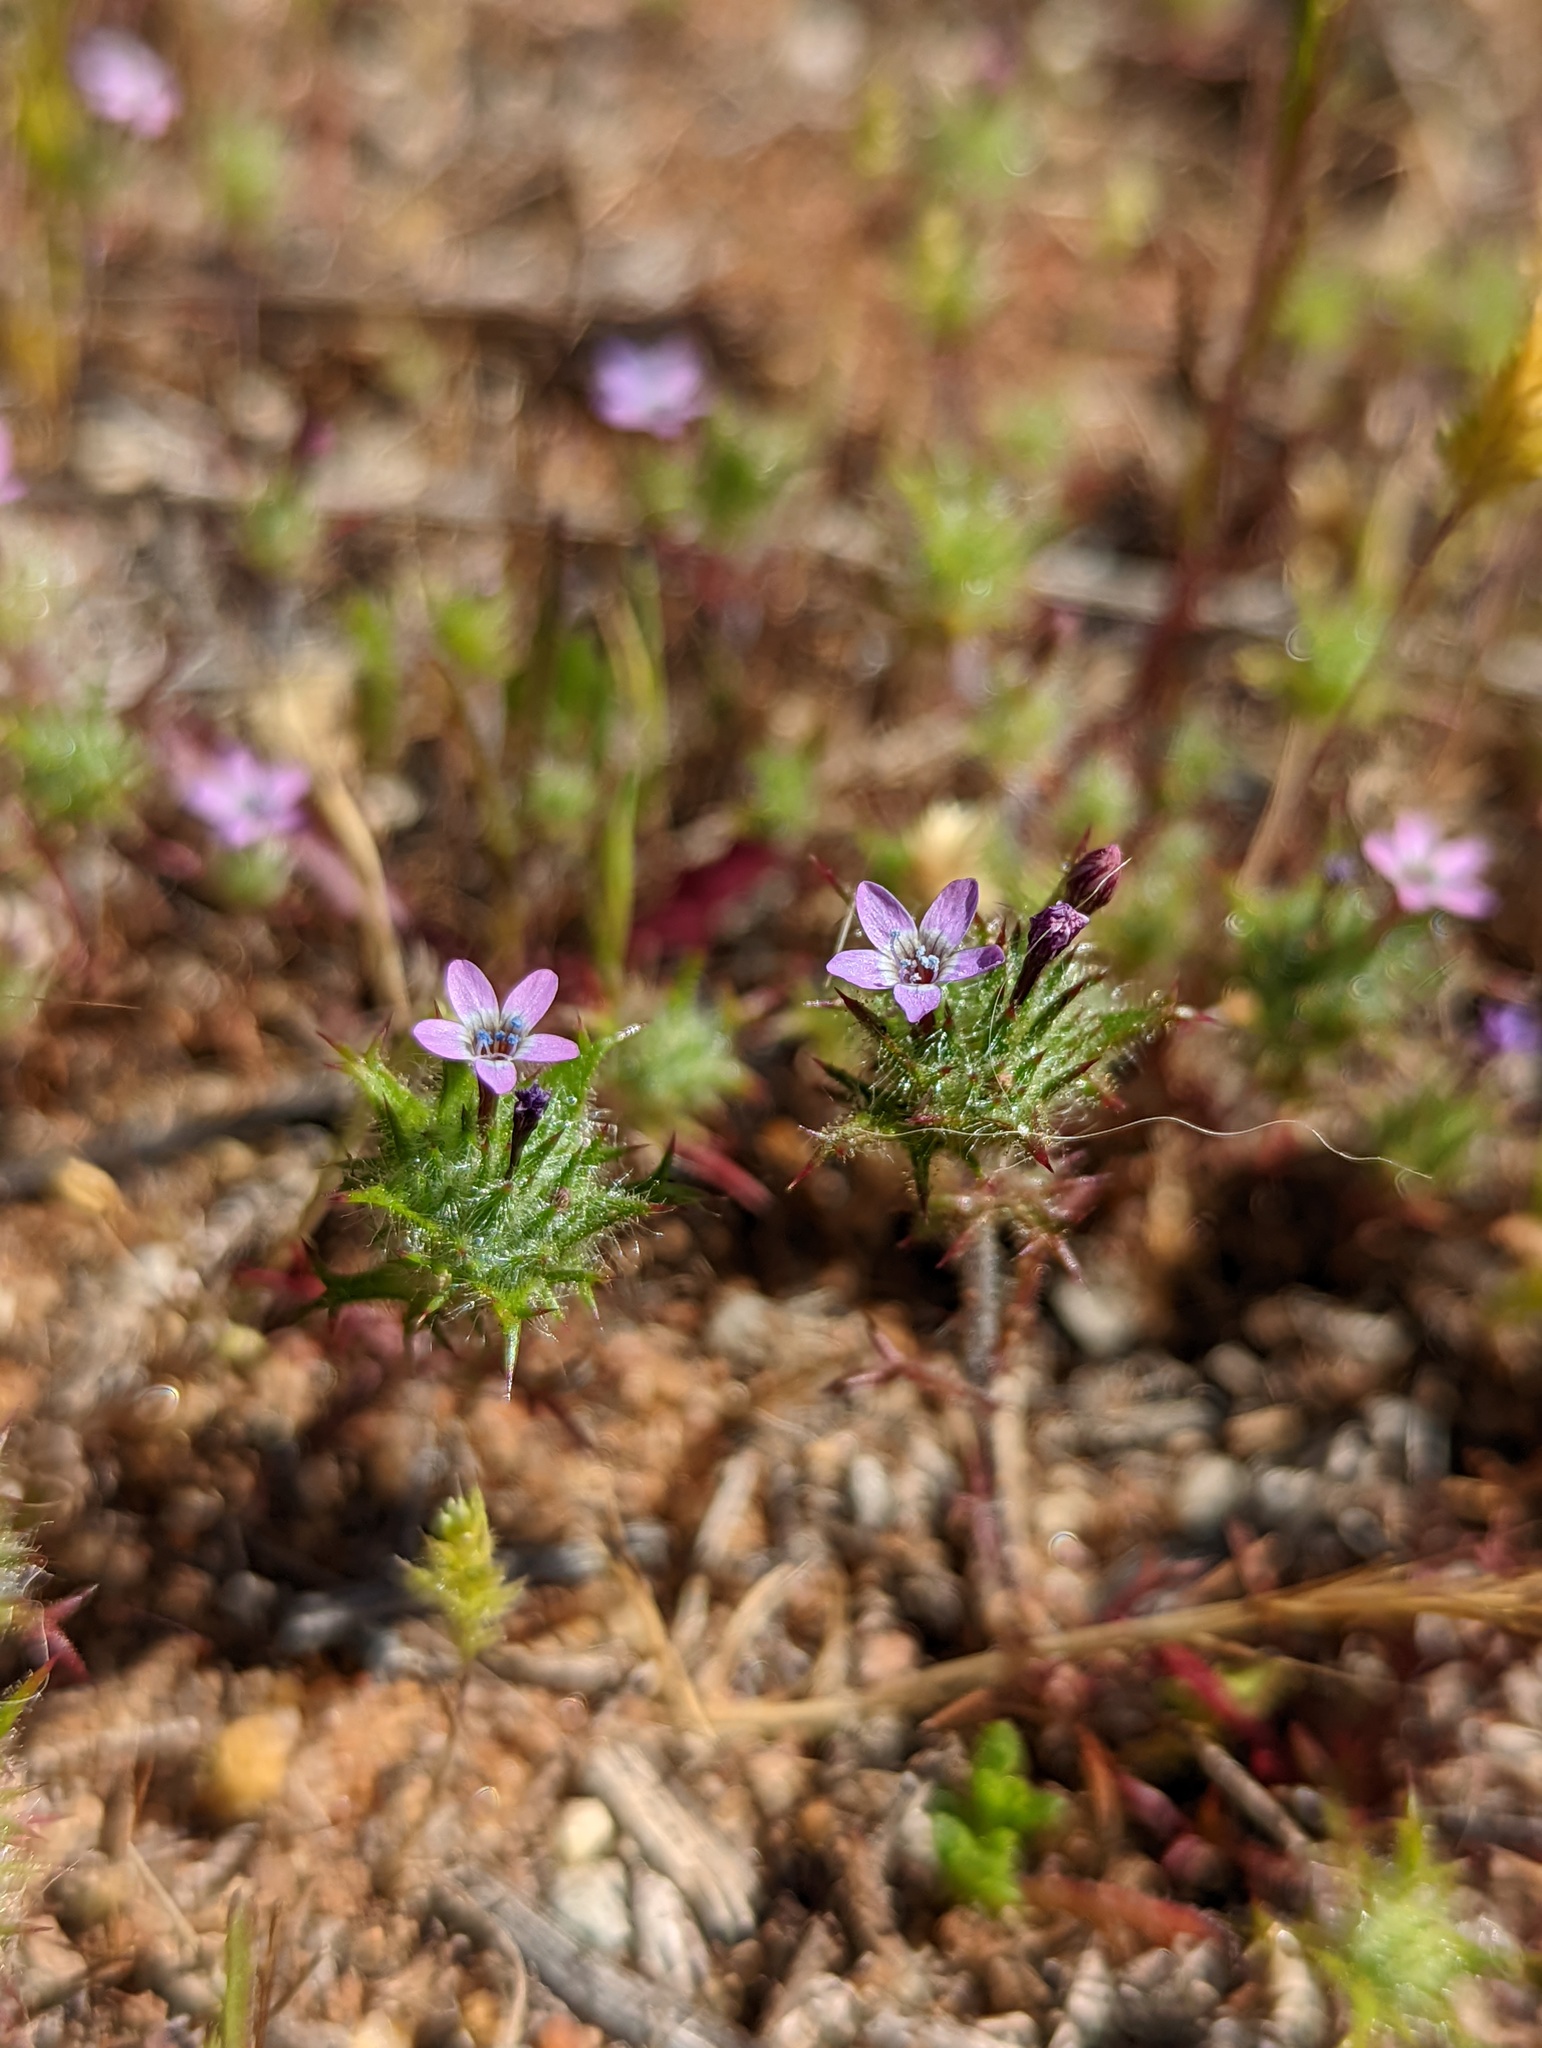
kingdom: Plantae
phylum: Tracheophyta
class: Magnoliopsida
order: Ericales
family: Polemoniaceae
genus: Navarretia
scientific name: Navarretia hamata
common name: Hooked navarretia
